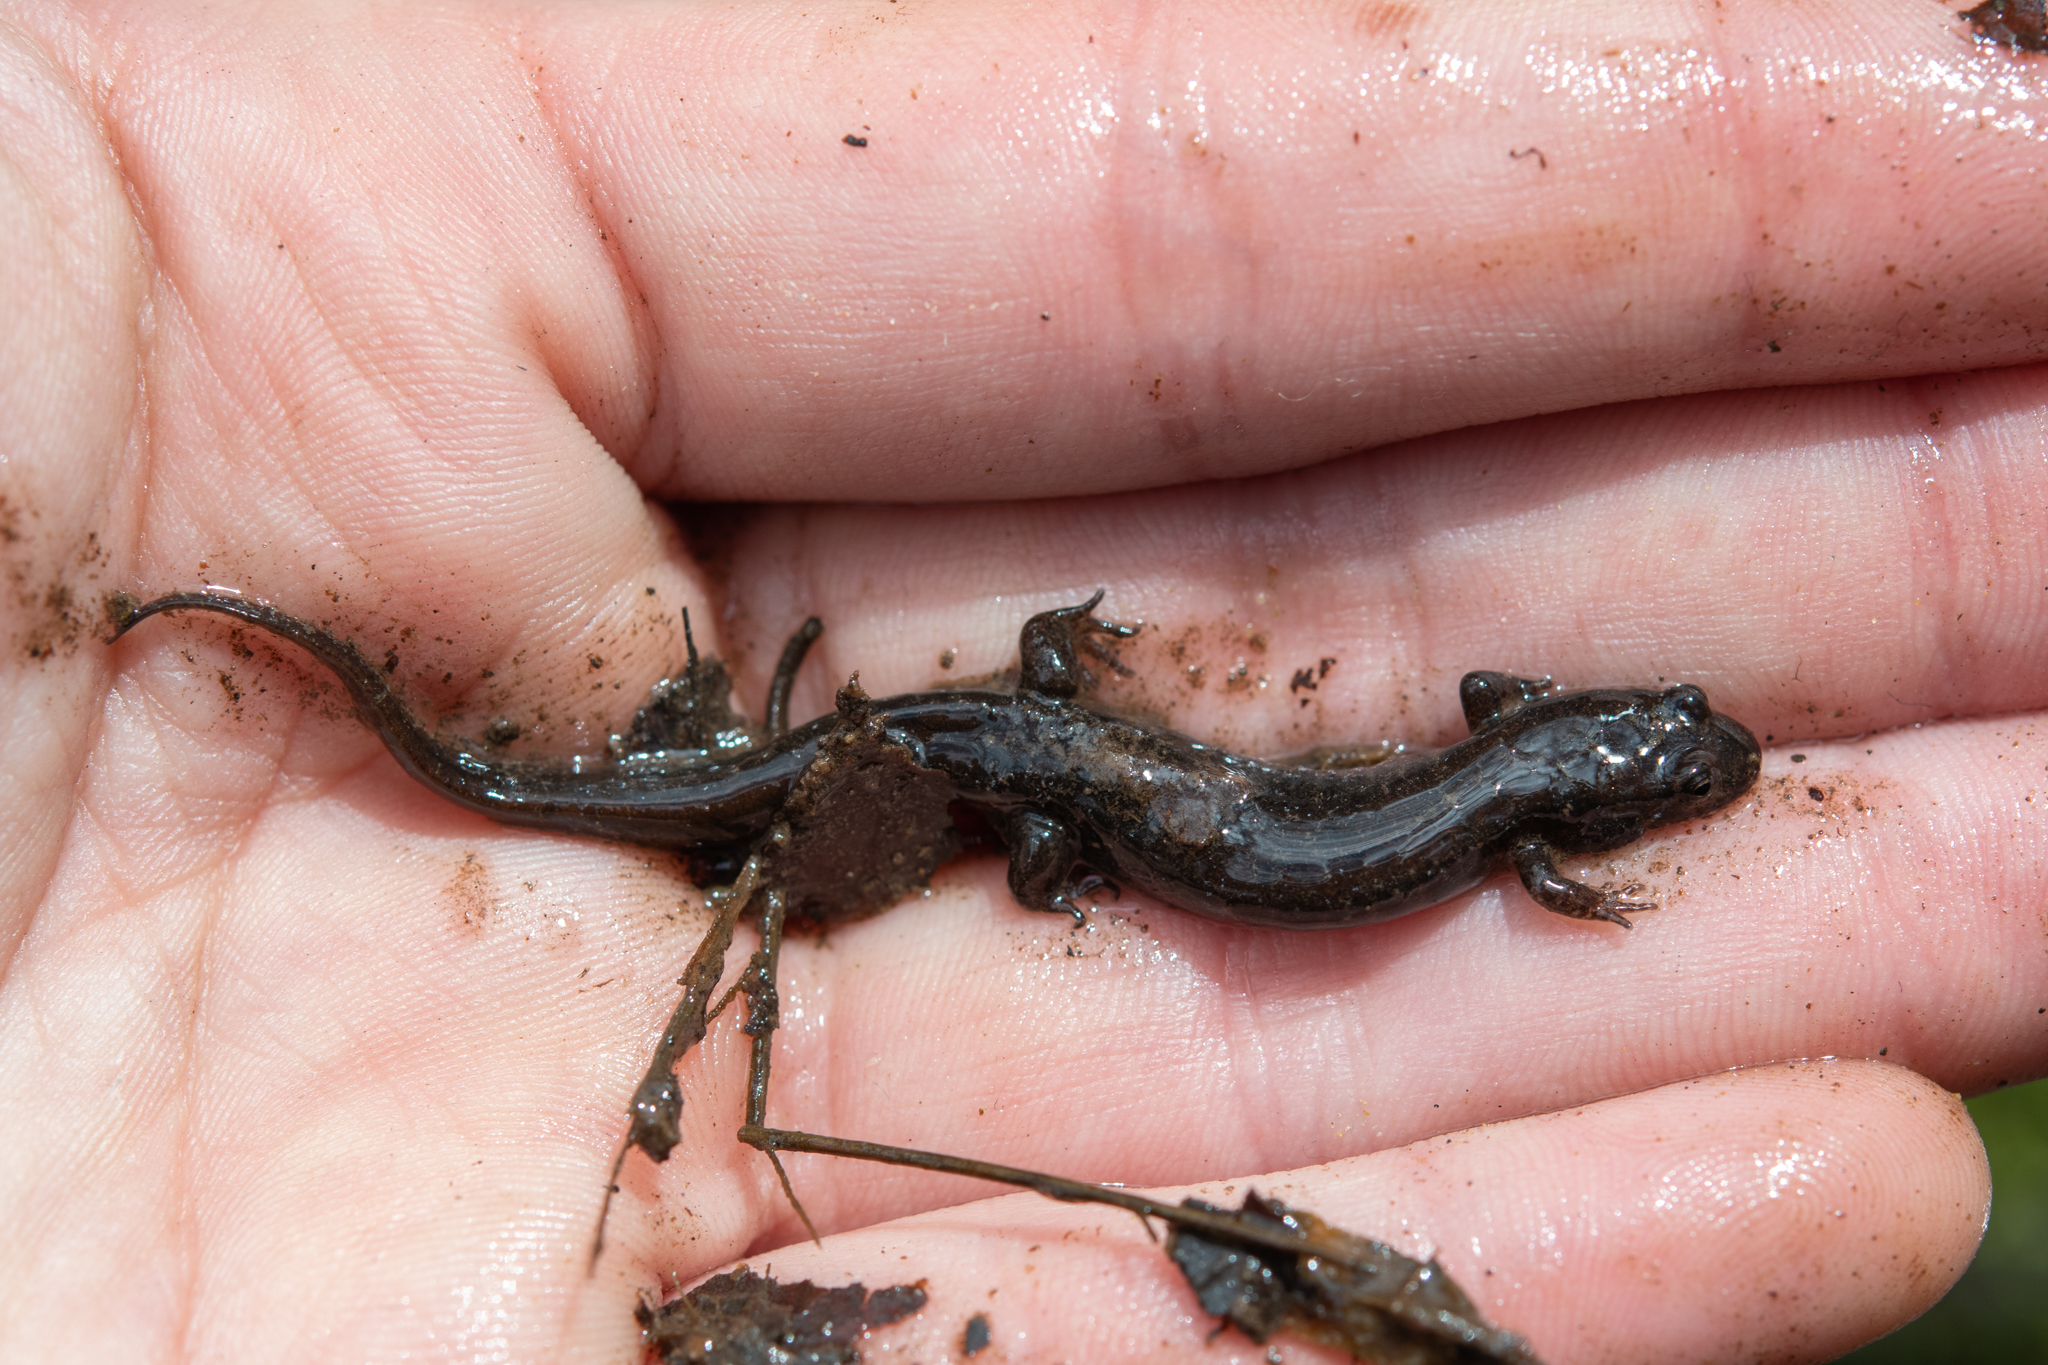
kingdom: Animalia
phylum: Chordata
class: Amphibia
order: Caudata
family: Plethodontidae
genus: Desmognathus
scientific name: Desmognathus fuscus
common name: Northern dusky salamander
